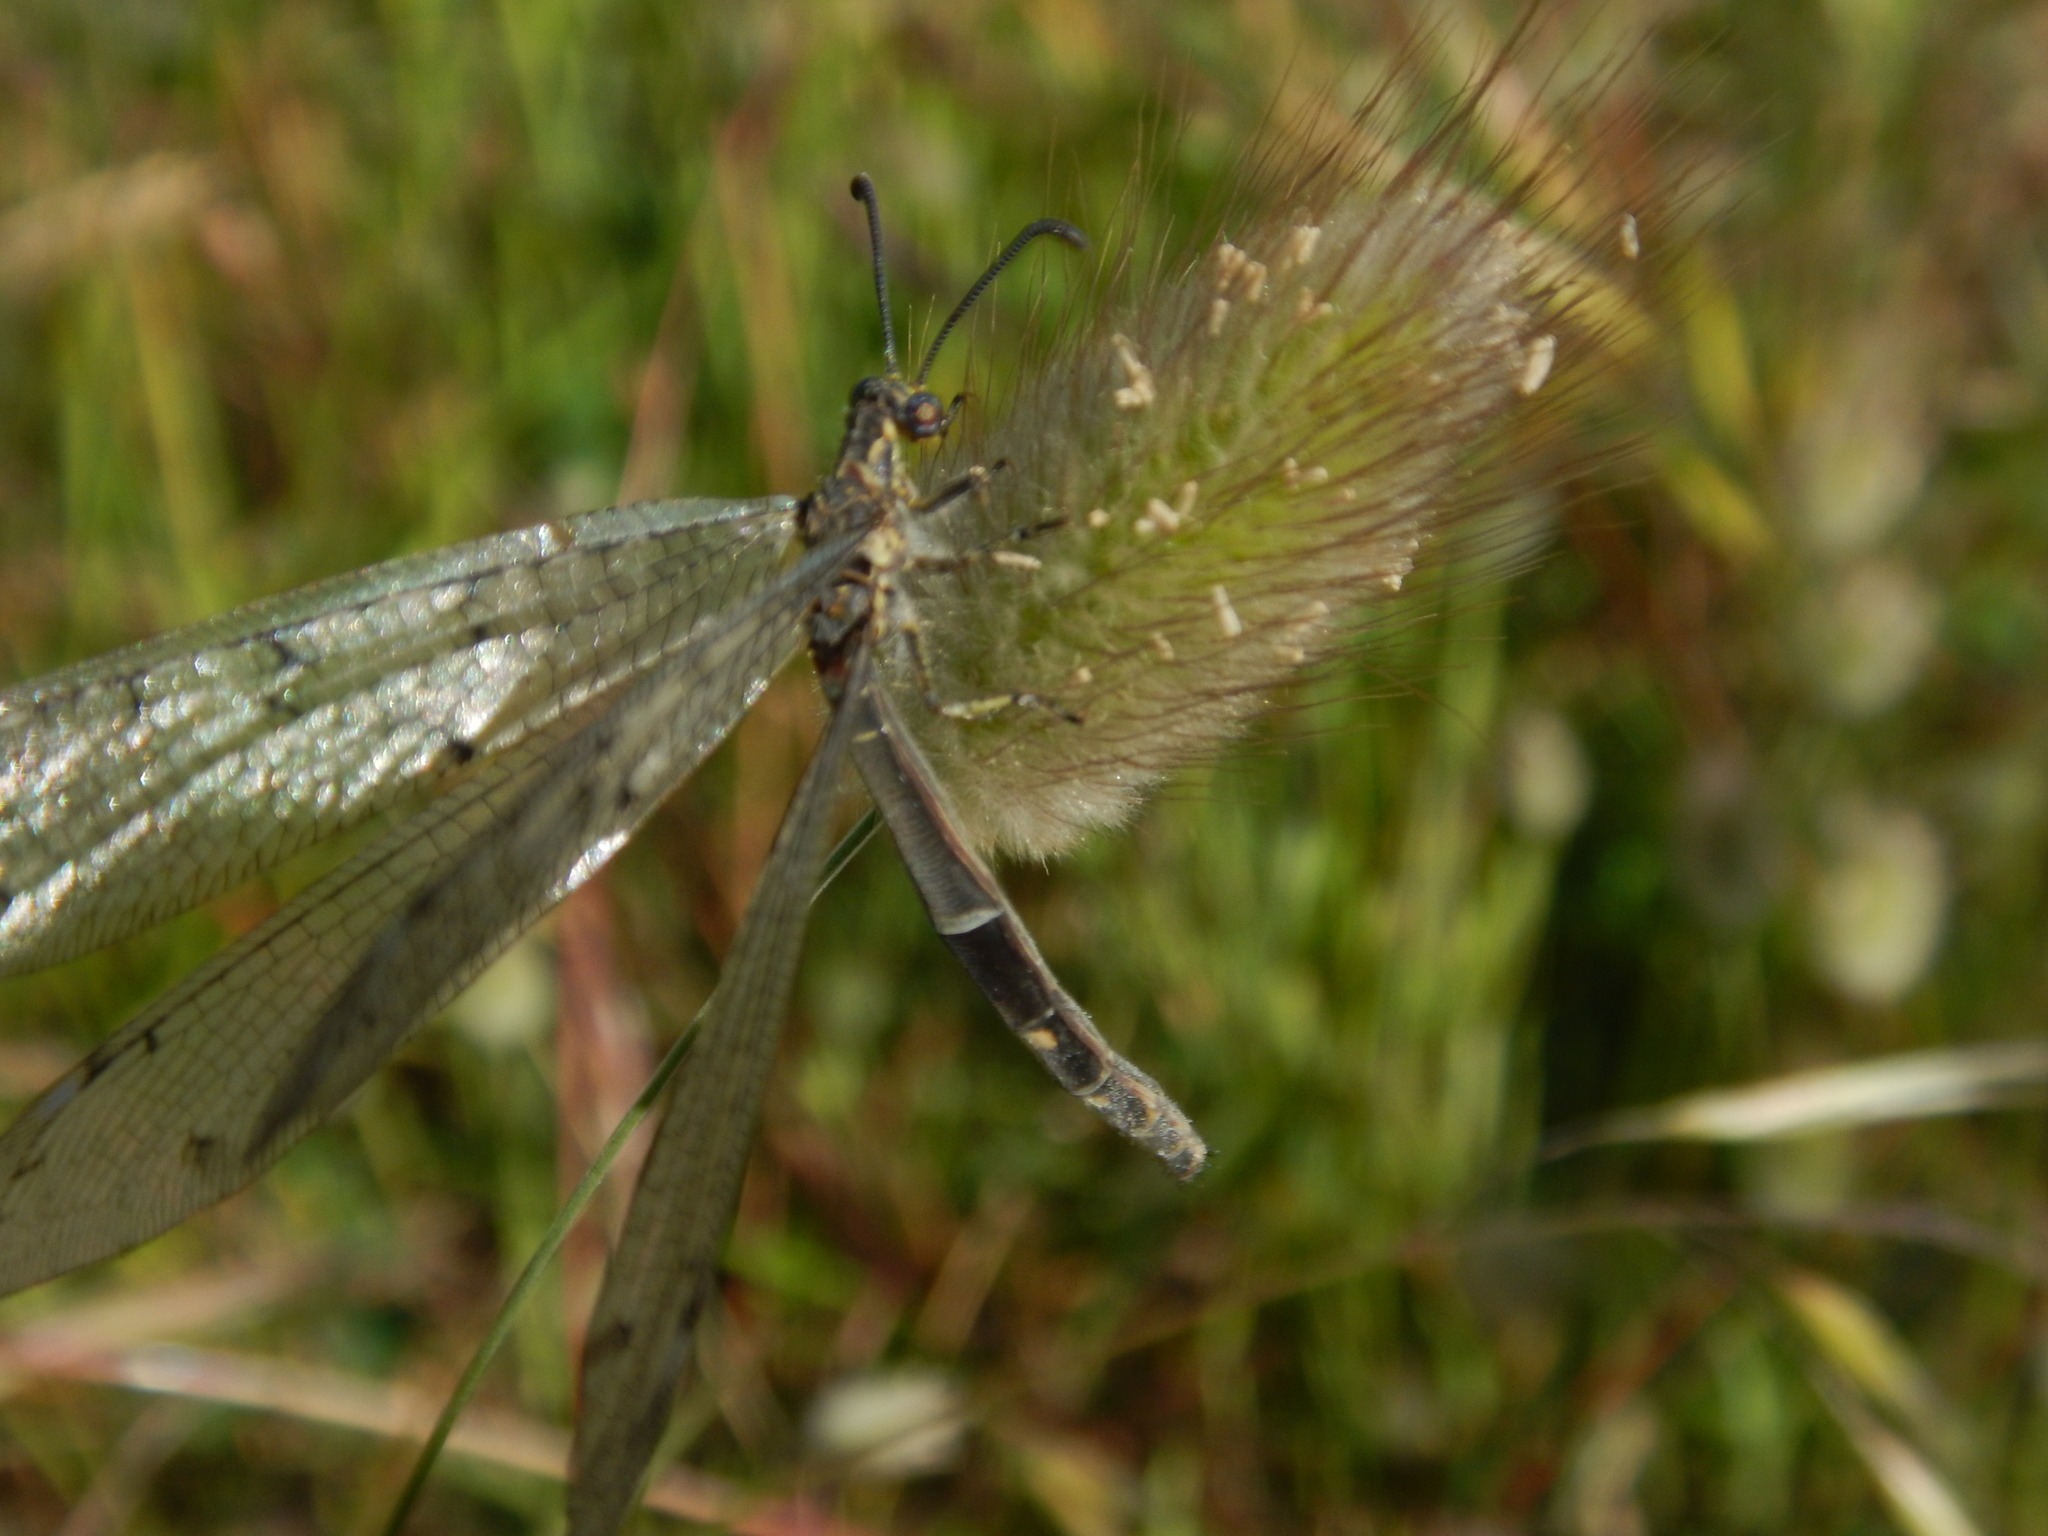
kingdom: Animalia
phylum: Arthropoda
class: Insecta
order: Neuroptera
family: Myrmeleontidae
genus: Distoleon
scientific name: Distoleon tetragrammicus
